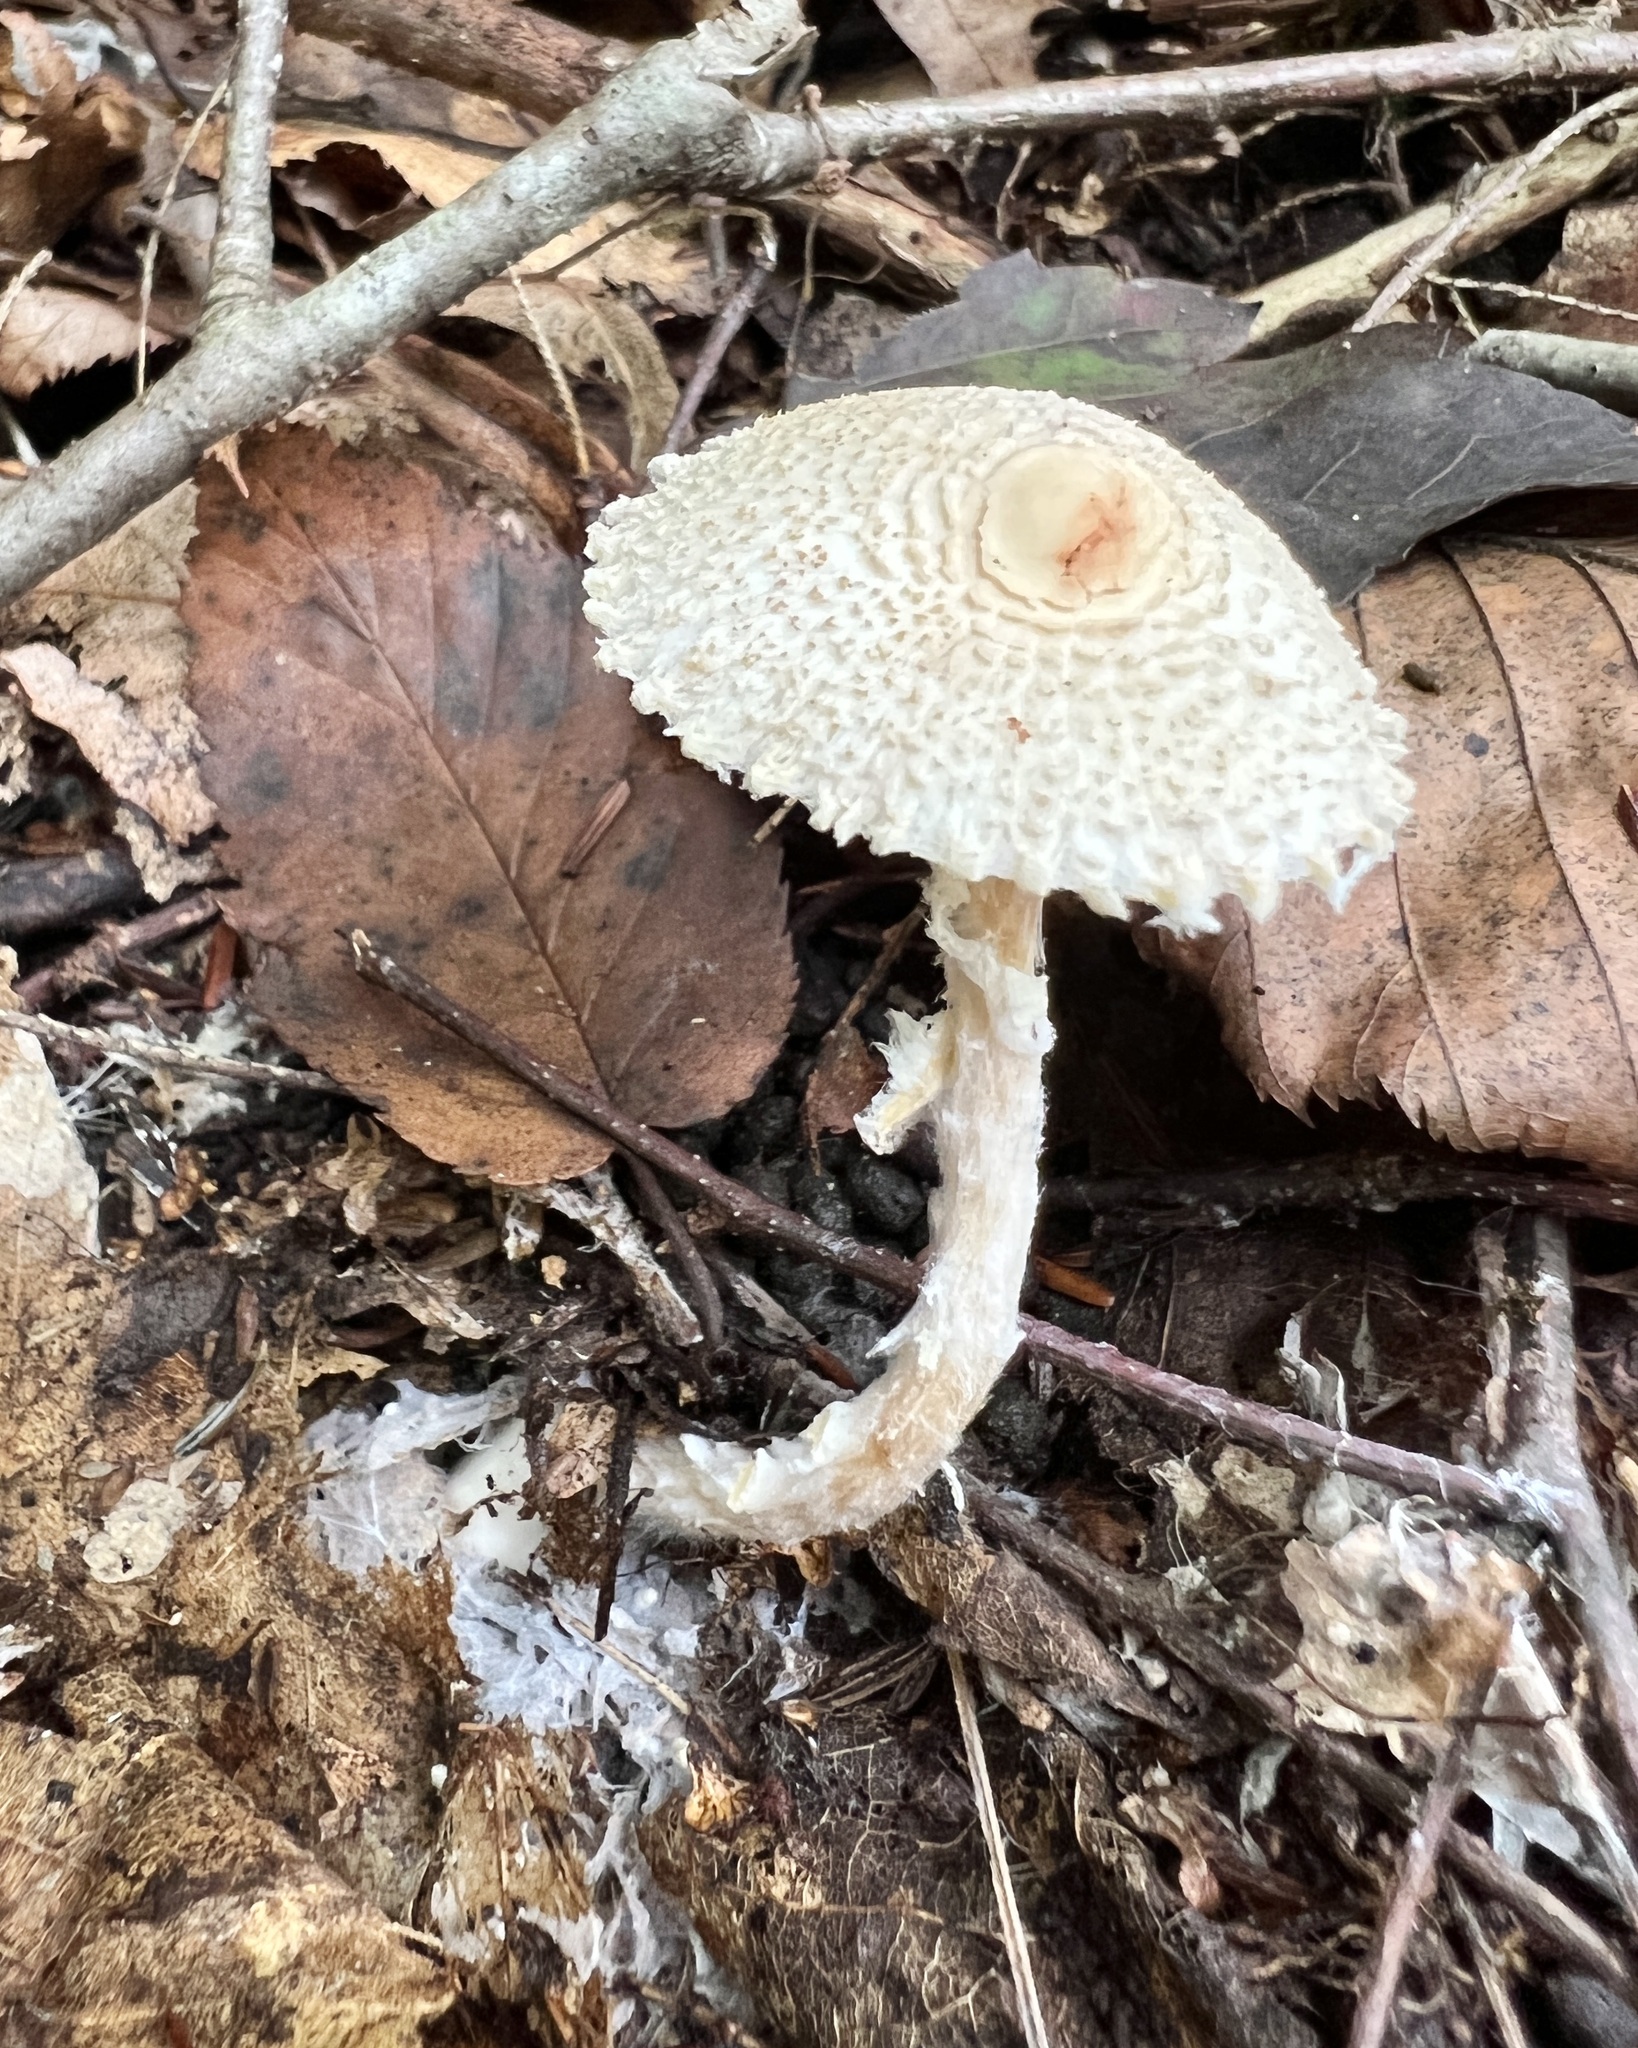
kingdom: Fungi
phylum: Basidiomycota
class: Agaricomycetes
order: Agaricales
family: Agaricaceae
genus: Lepiota
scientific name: Lepiota clypeolaria
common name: Shield dapperling
